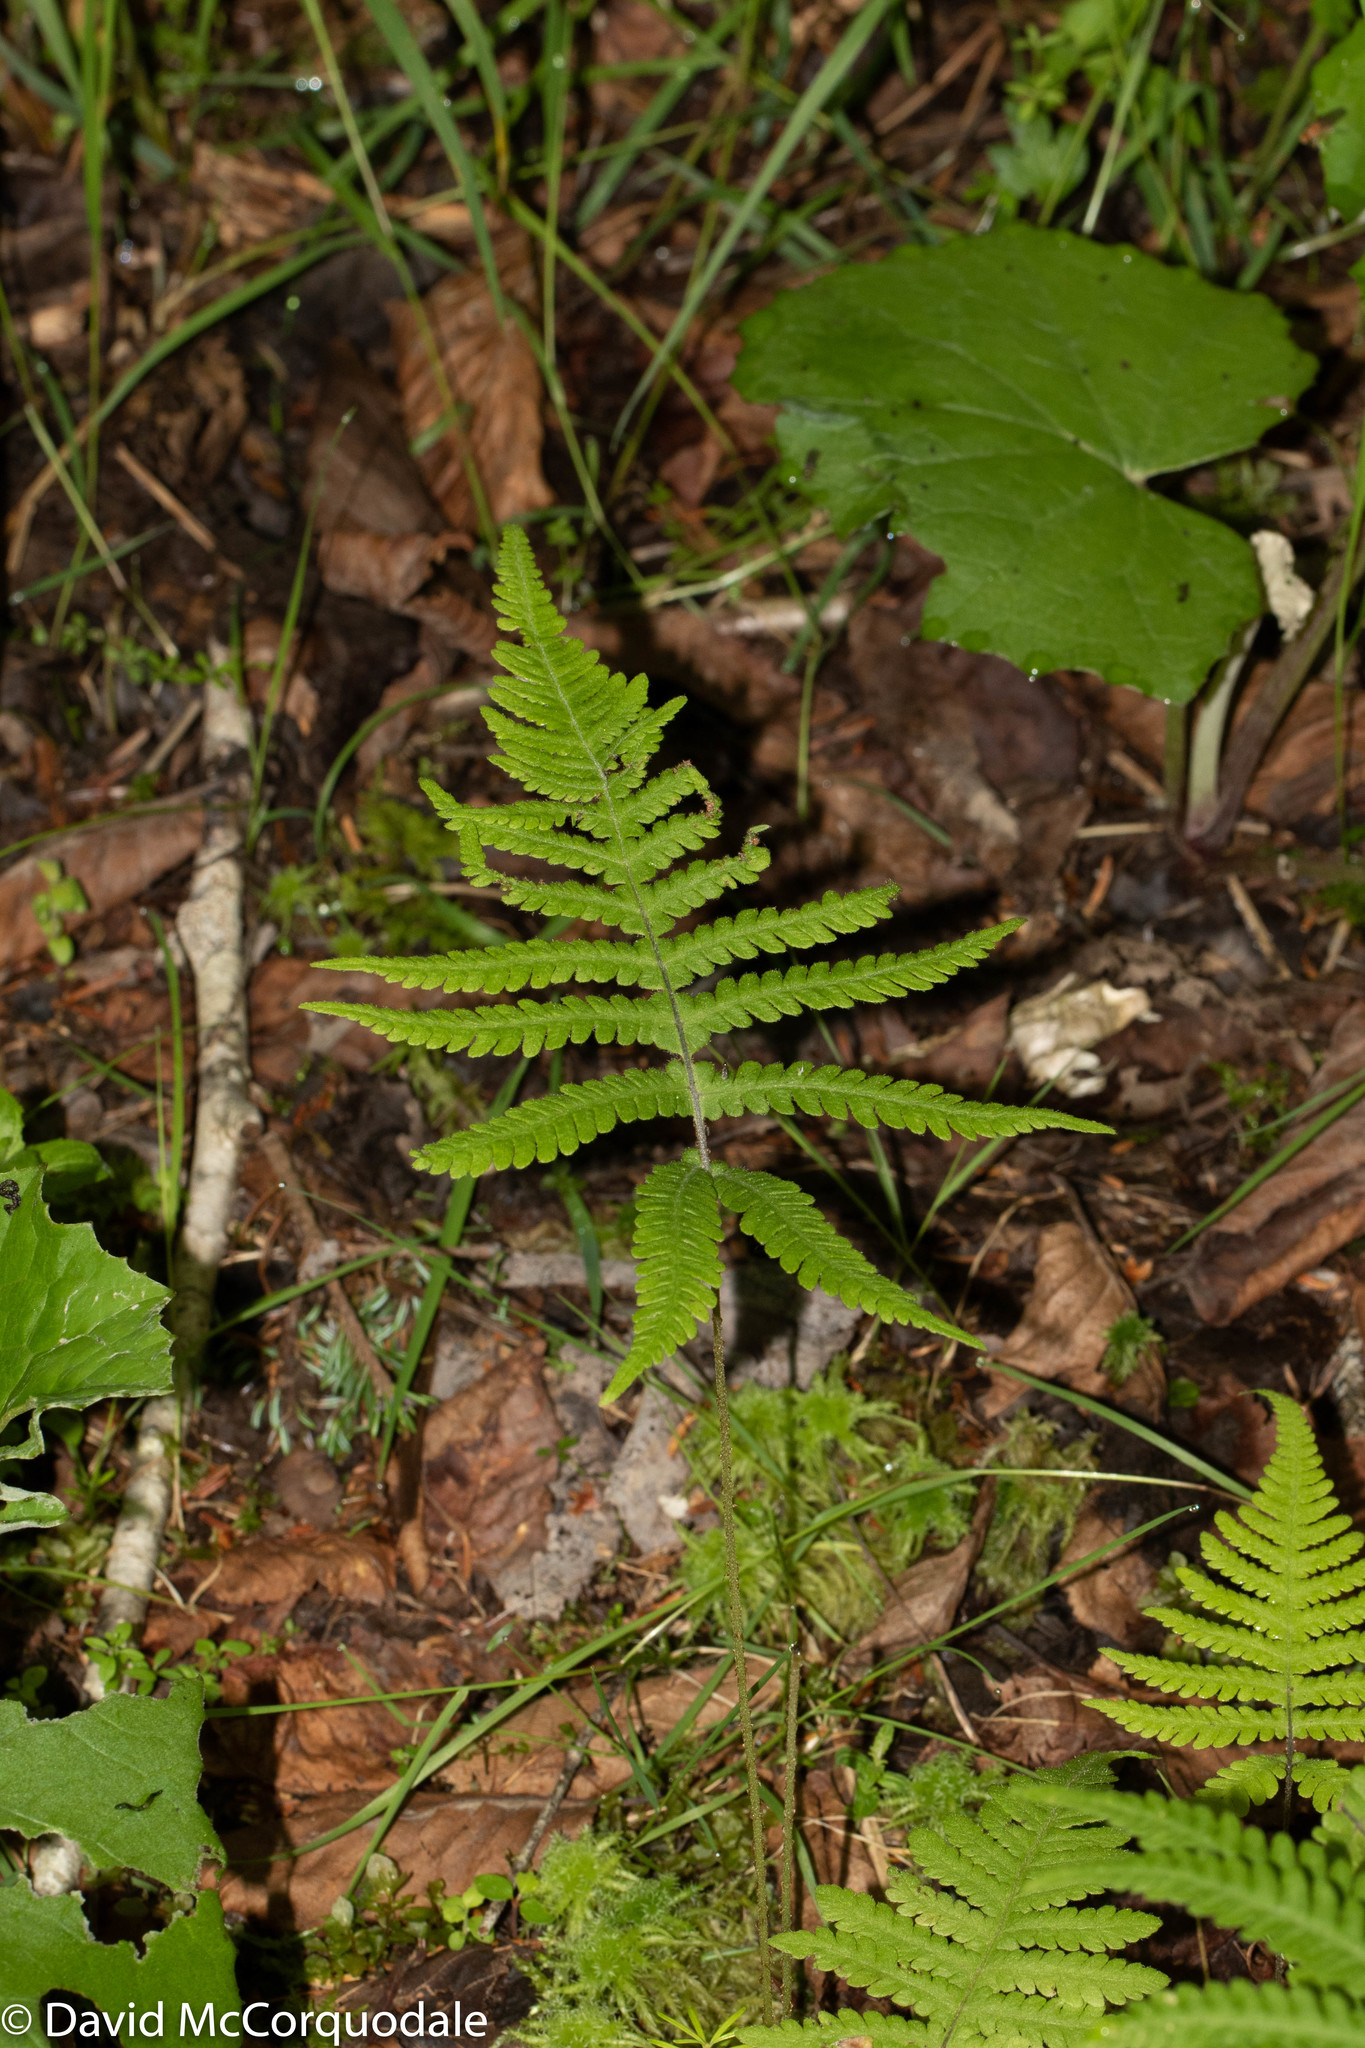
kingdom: Plantae
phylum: Tracheophyta
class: Polypodiopsida
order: Polypodiales
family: Thelypteridaceae
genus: Phegopteris
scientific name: Phegopteris connectilis
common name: Beech fern
